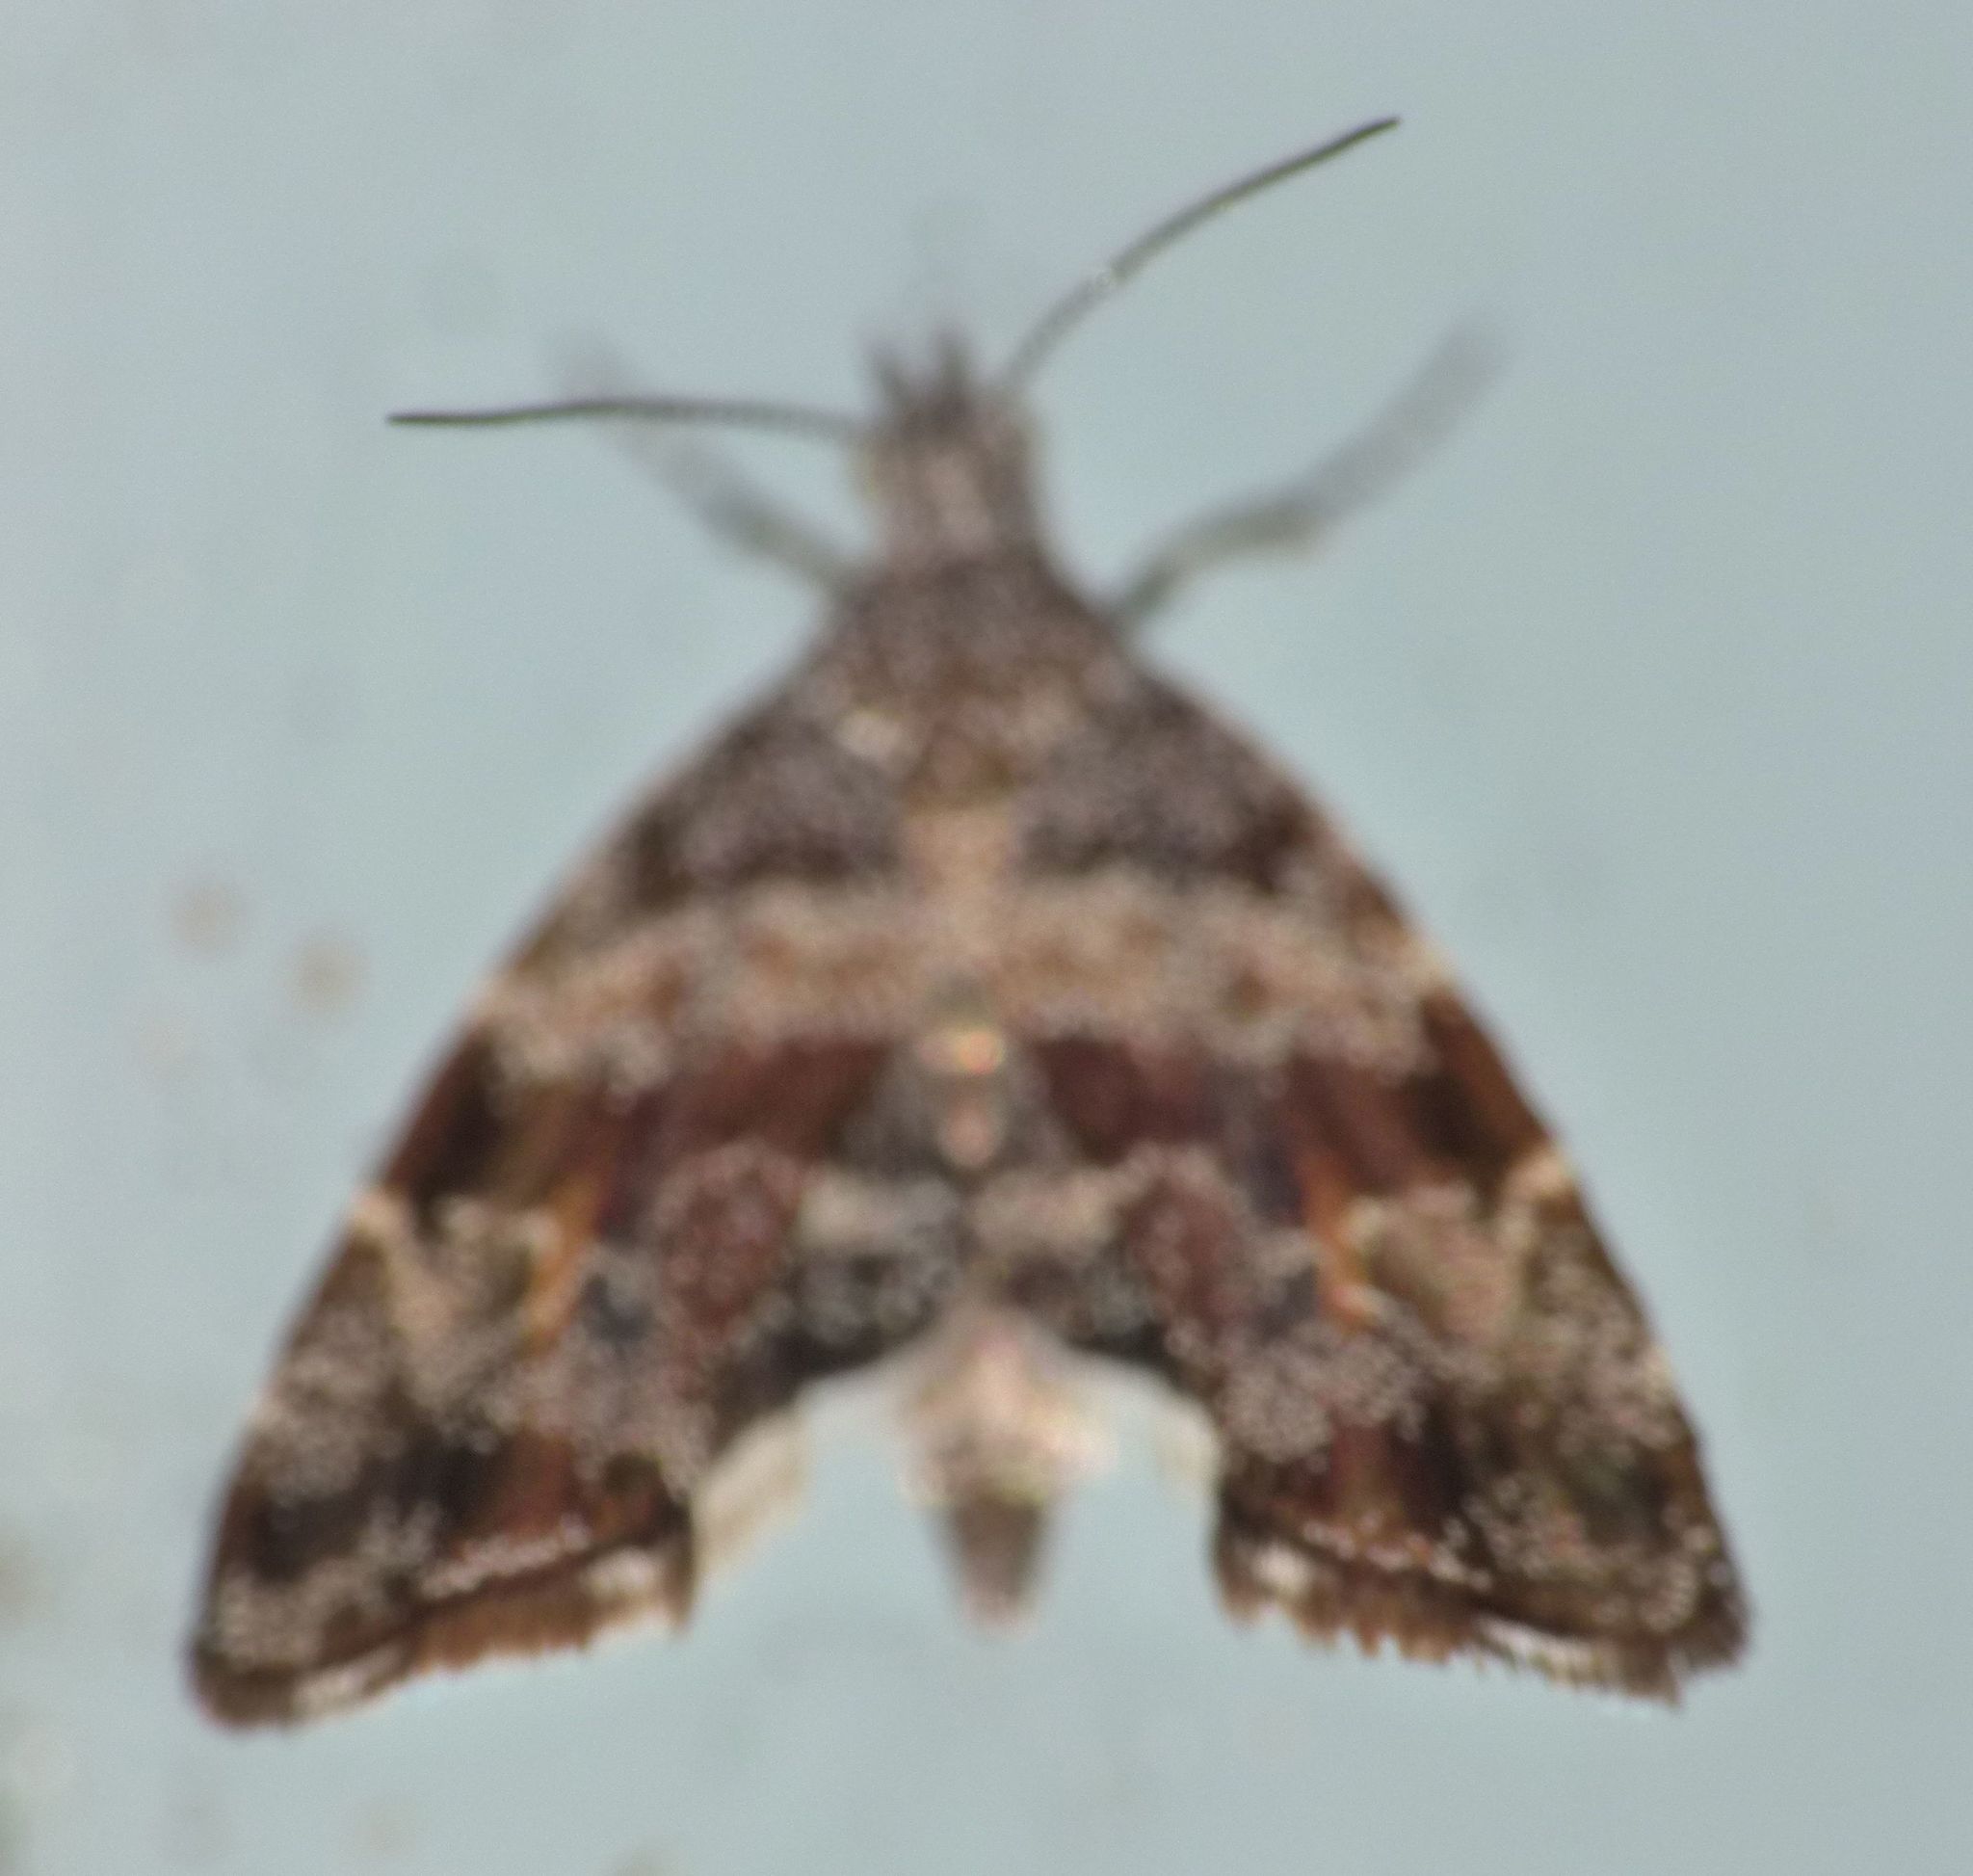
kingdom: Animalia
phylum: Arthropoda
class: Insecta
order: Lepidoptera
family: Choreutidae
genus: Asterivora
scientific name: Asterivora combinatana
